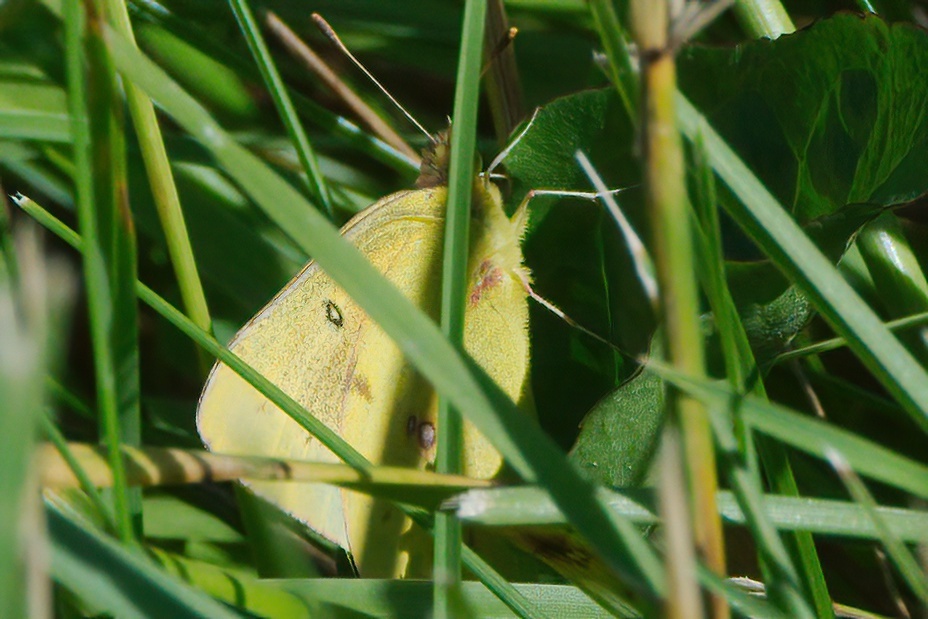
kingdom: Animalia
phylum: Arthropoda
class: Insecta
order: Lepidoptera
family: Pieridae
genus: Colias
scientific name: Colias philodice
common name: Clouded sulphur
